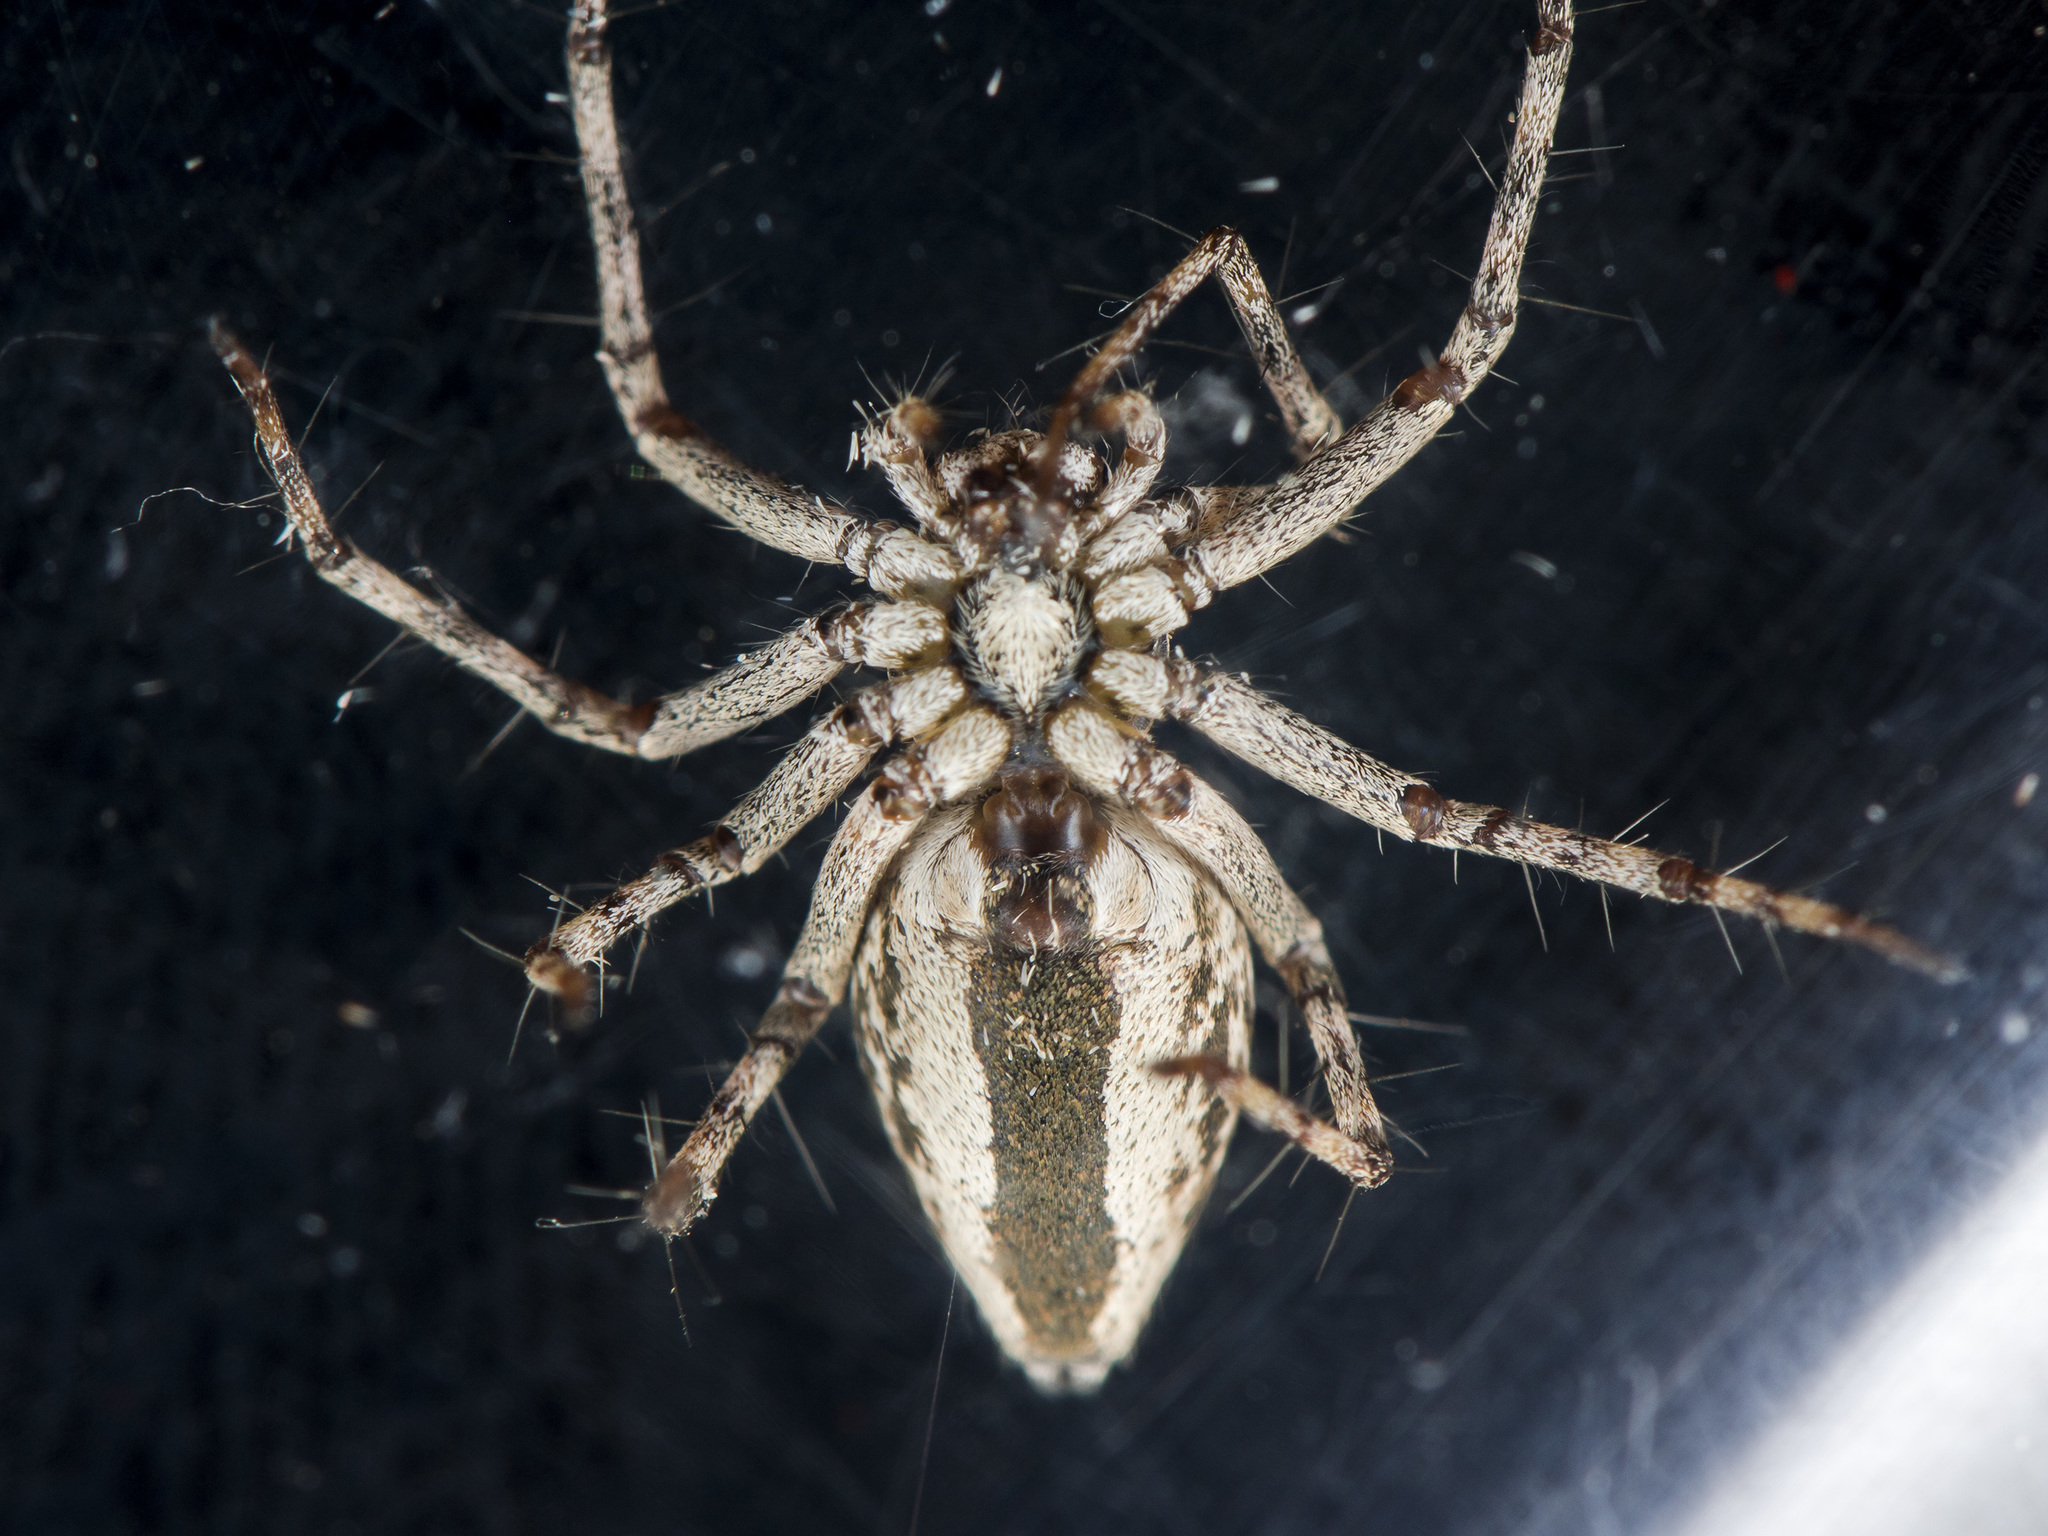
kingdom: Animalia
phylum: Arthropoda
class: Arachnida
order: Araneae
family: Oxyopidae
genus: Oxyopes
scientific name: Oxyopes globifer
